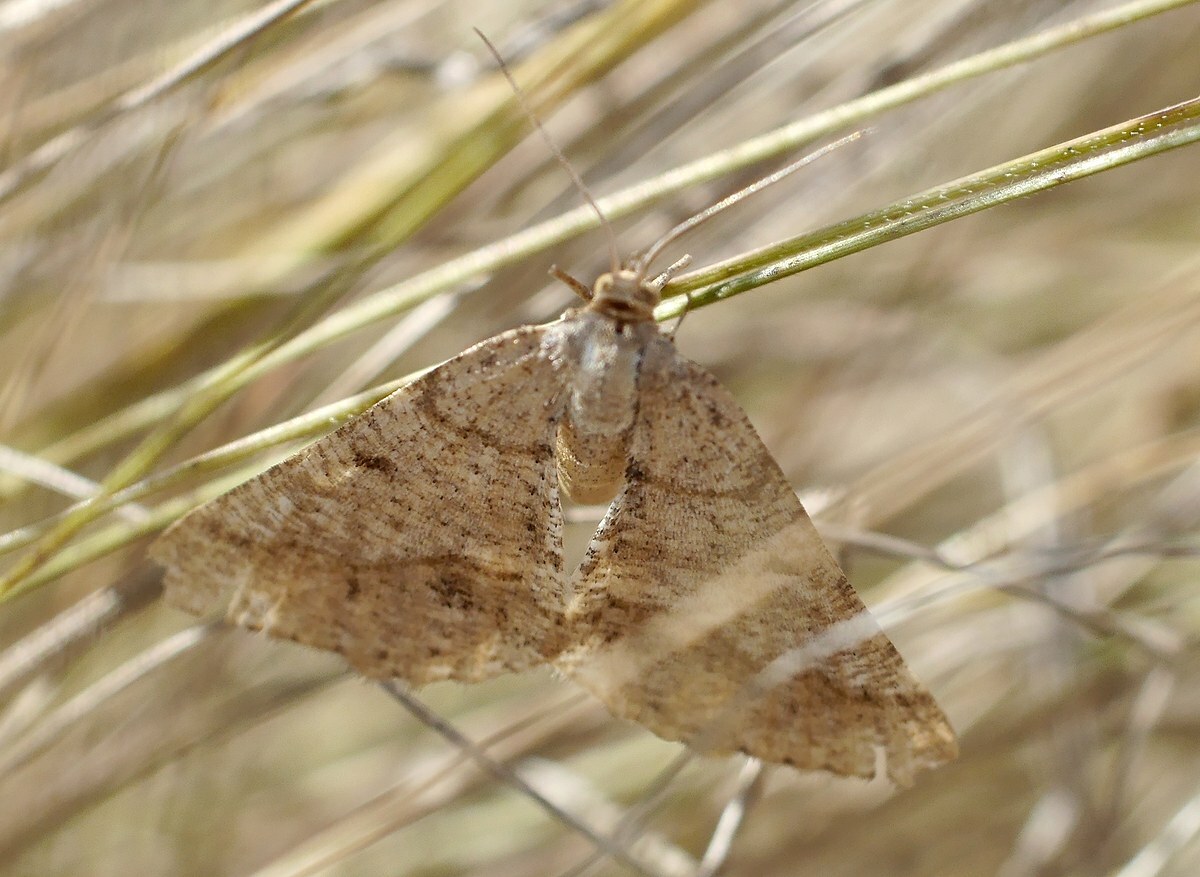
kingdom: Animalia
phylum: Arthropoda
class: Insecta
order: Lepidoptera
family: Geometridae
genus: Tephrina
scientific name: Tephrina murinaria
